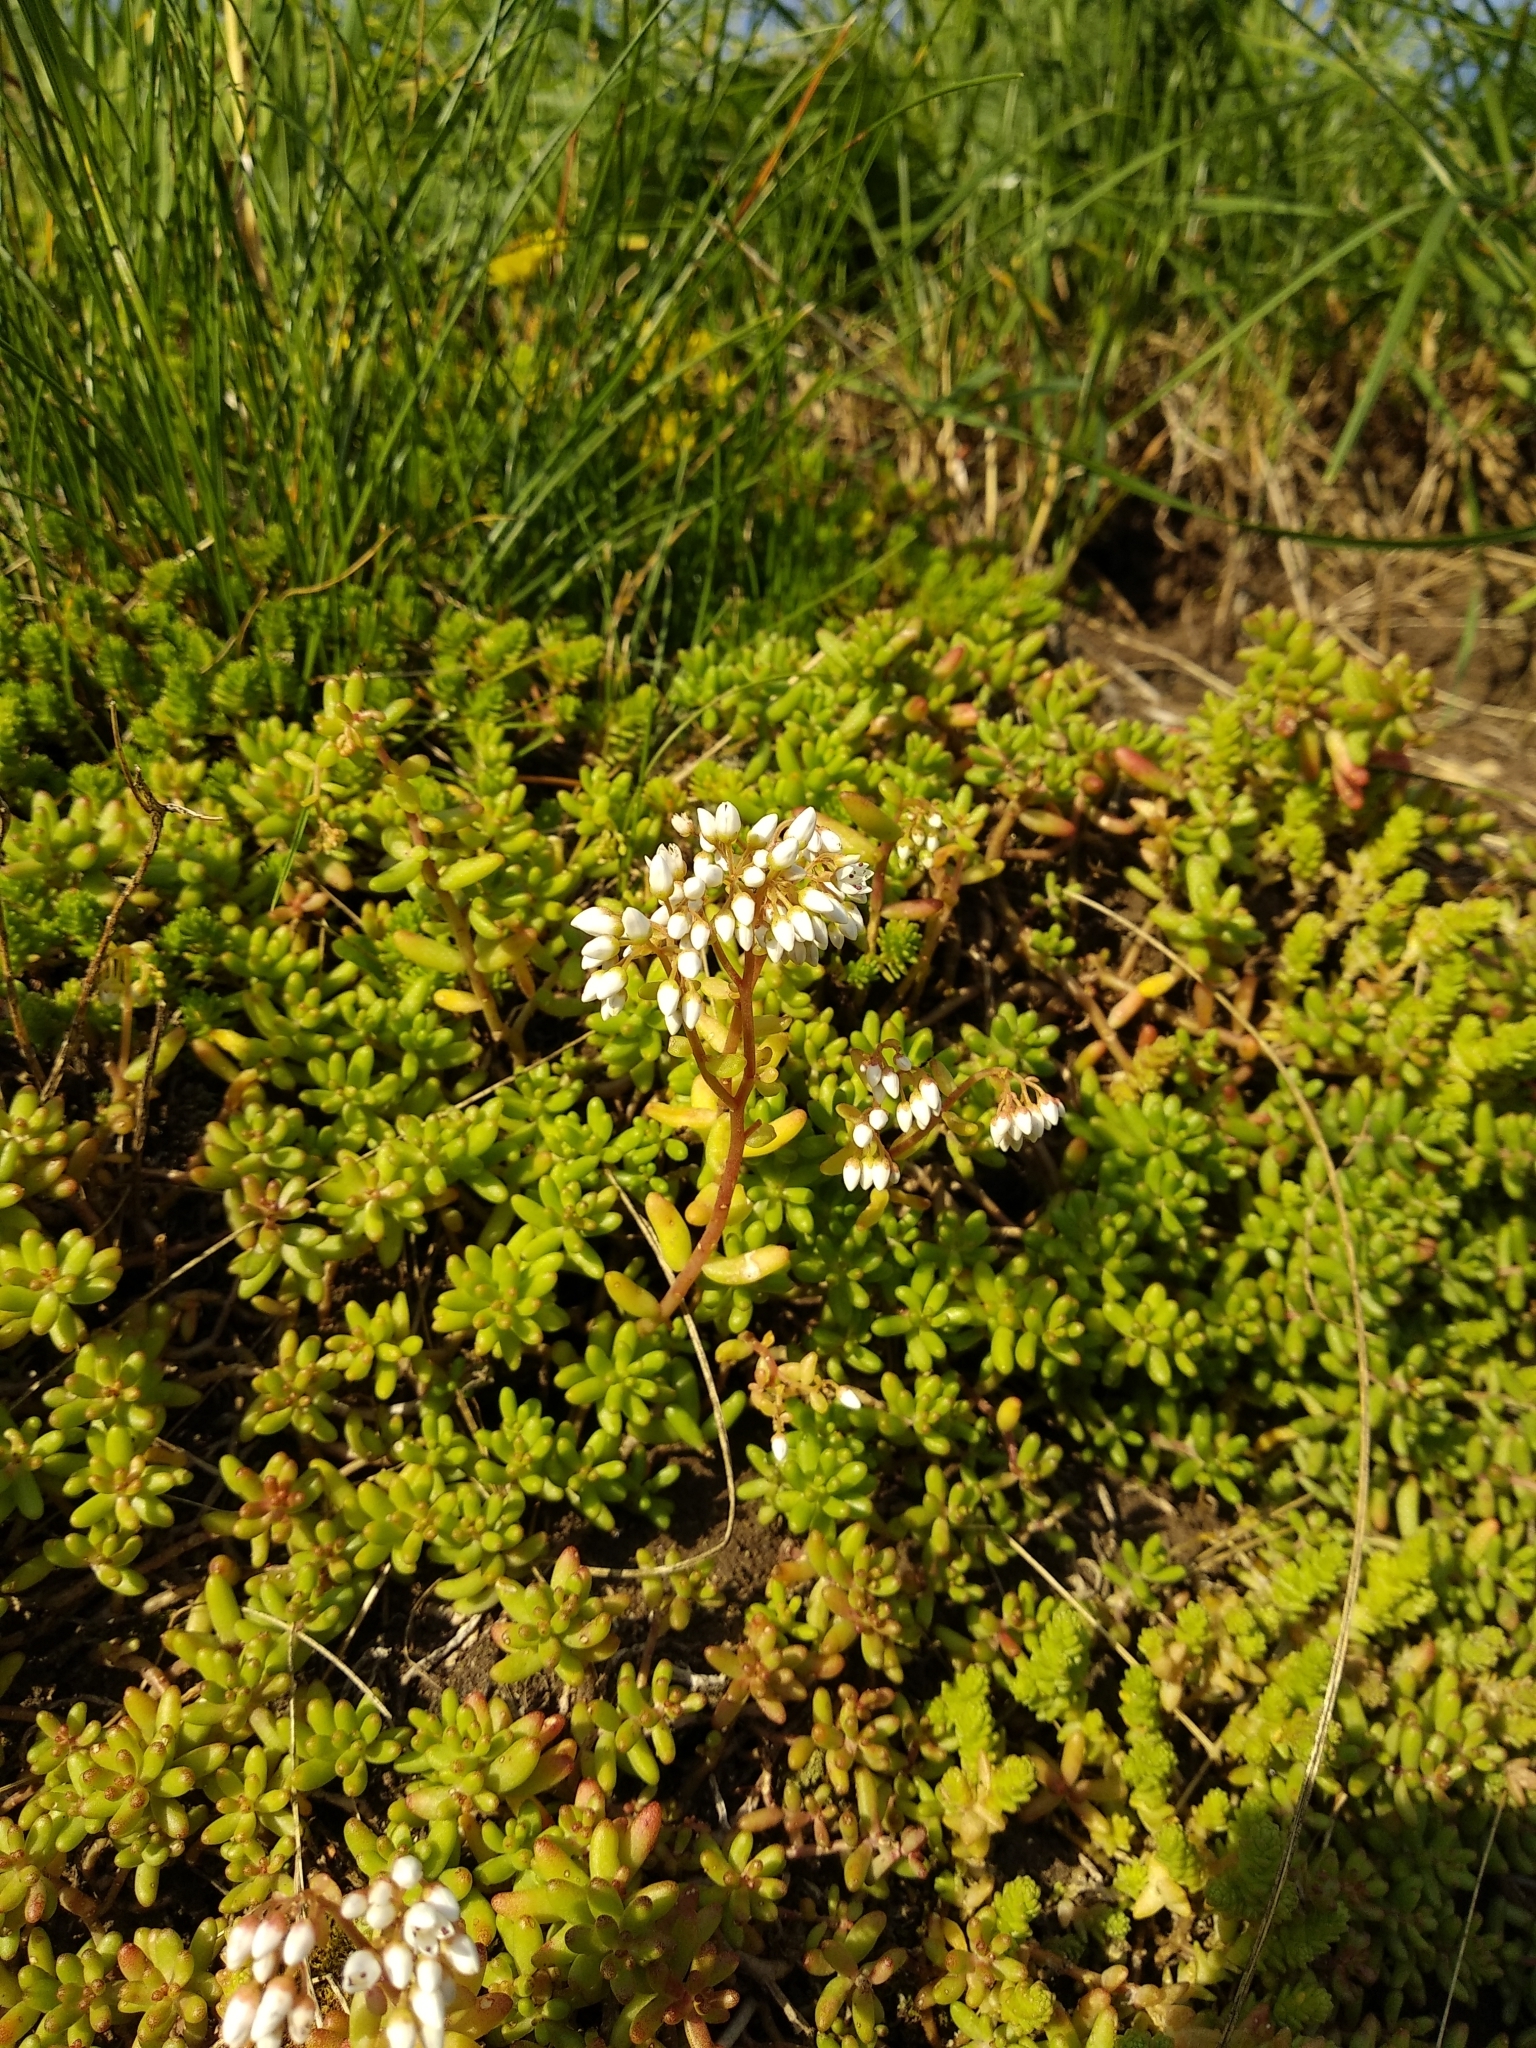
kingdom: Plantae
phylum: Tracheophyta
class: Magnoliopsida
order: Saxifragales
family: Crassulaceae
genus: Sedum
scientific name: Sedum album
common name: White stonecrop
